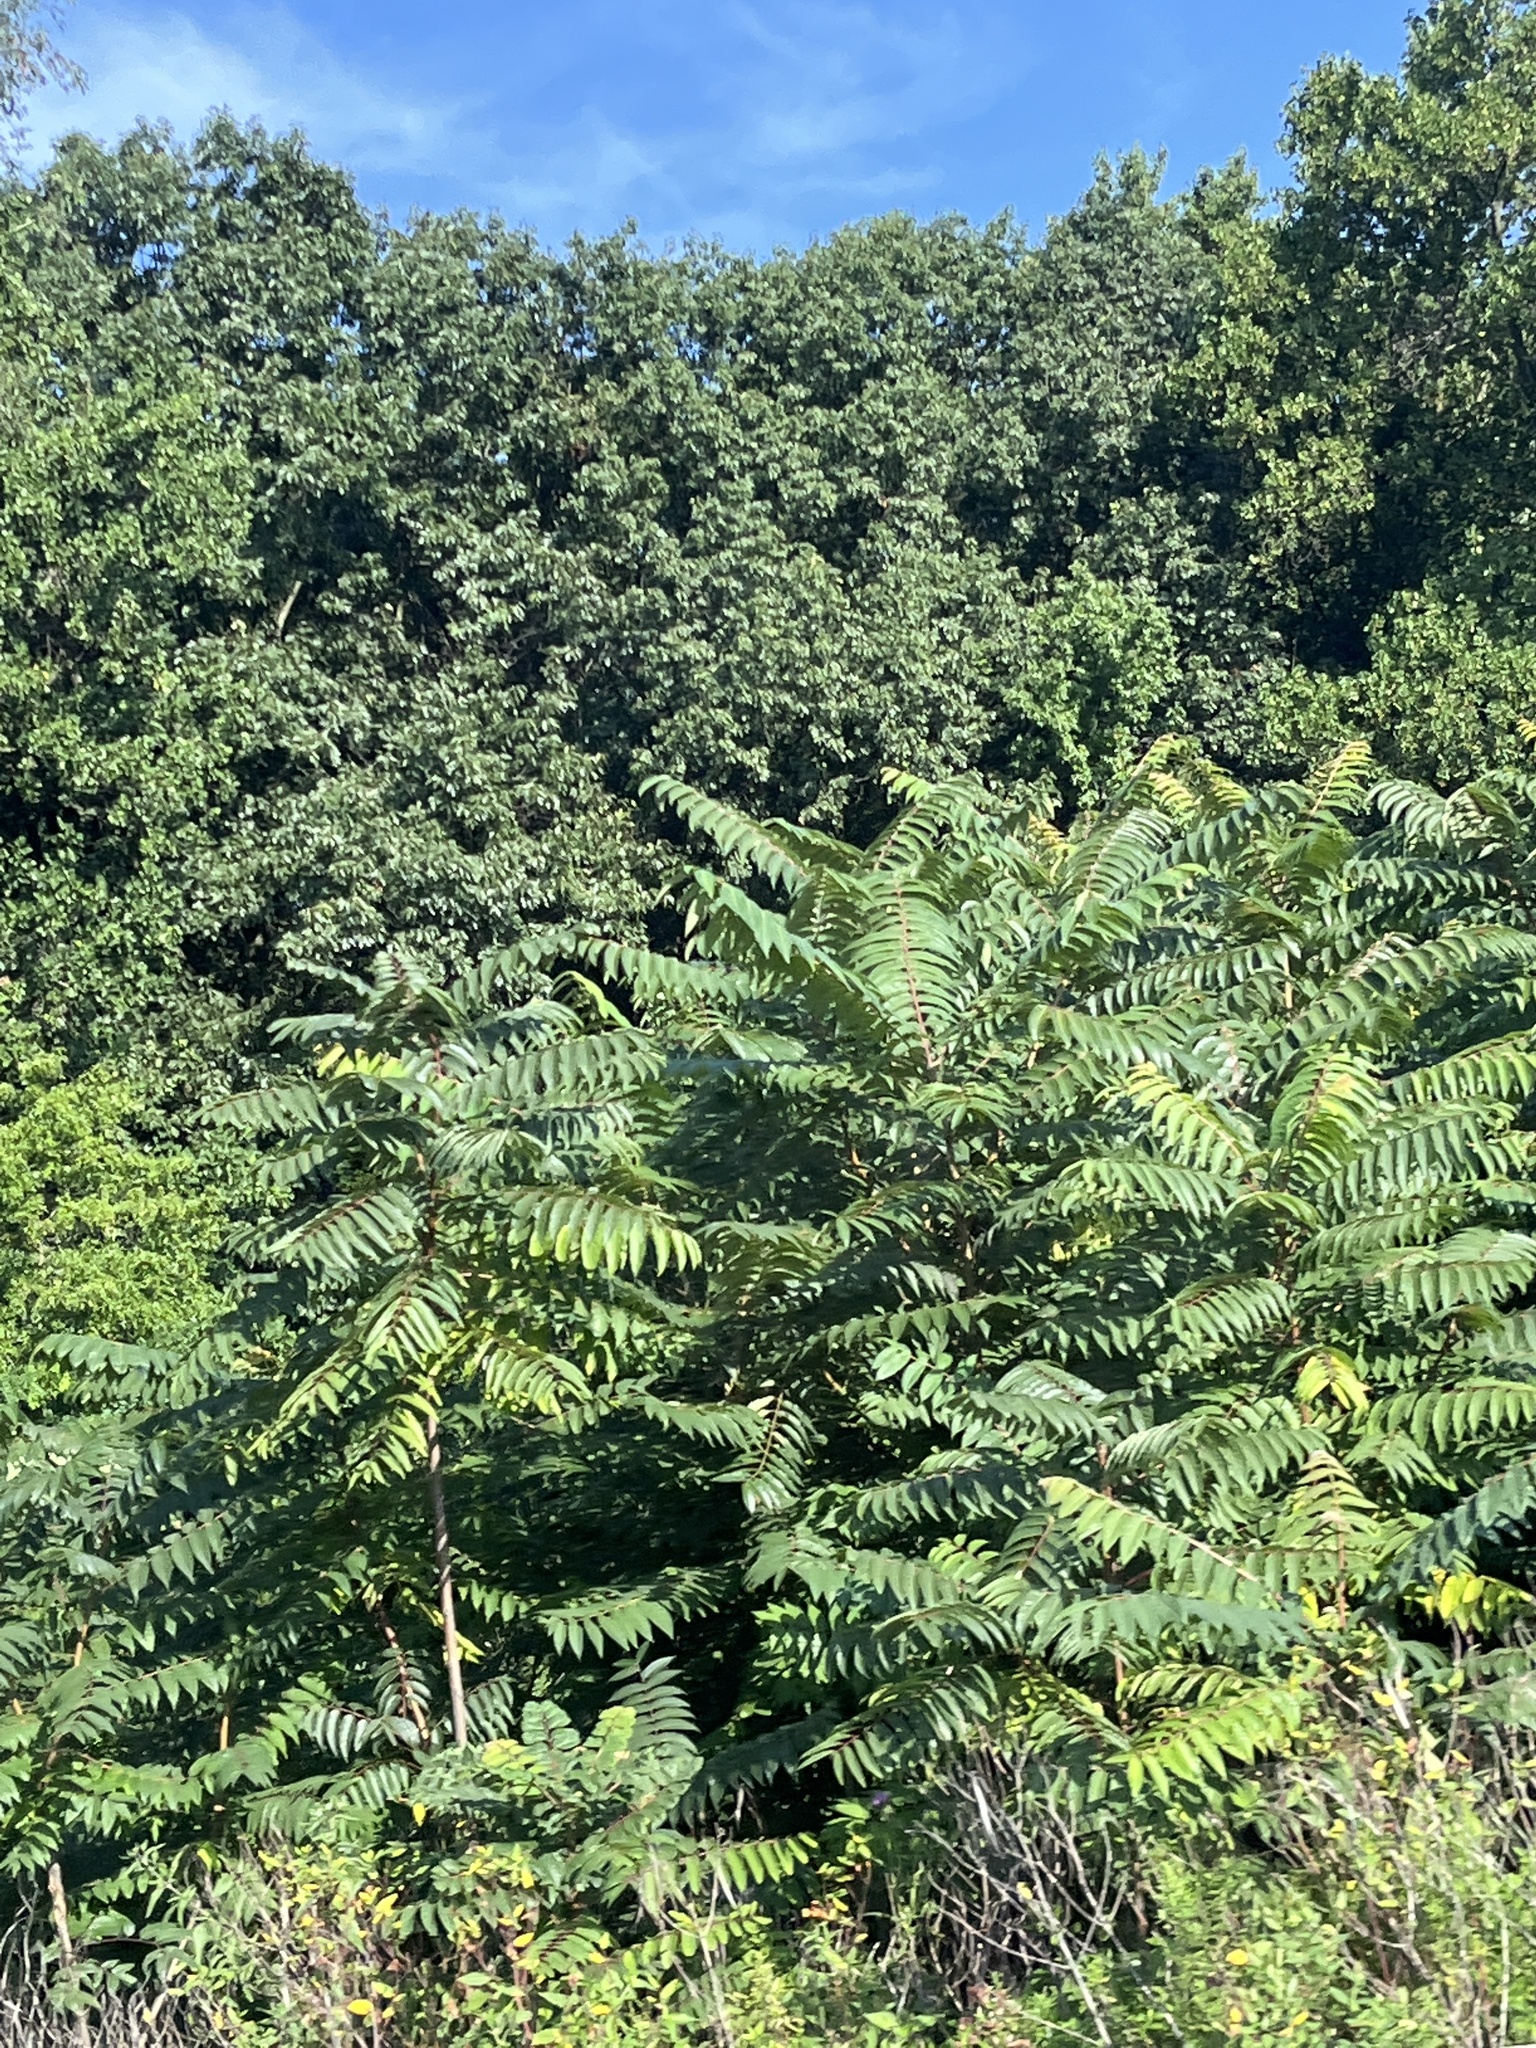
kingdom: Plantae
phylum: Tracheophyta
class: Magnoliopsida
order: Sapindales
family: Simaroubaceae
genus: Ailanthus
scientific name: Ailanthus altissima
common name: Tree-of-heaven
